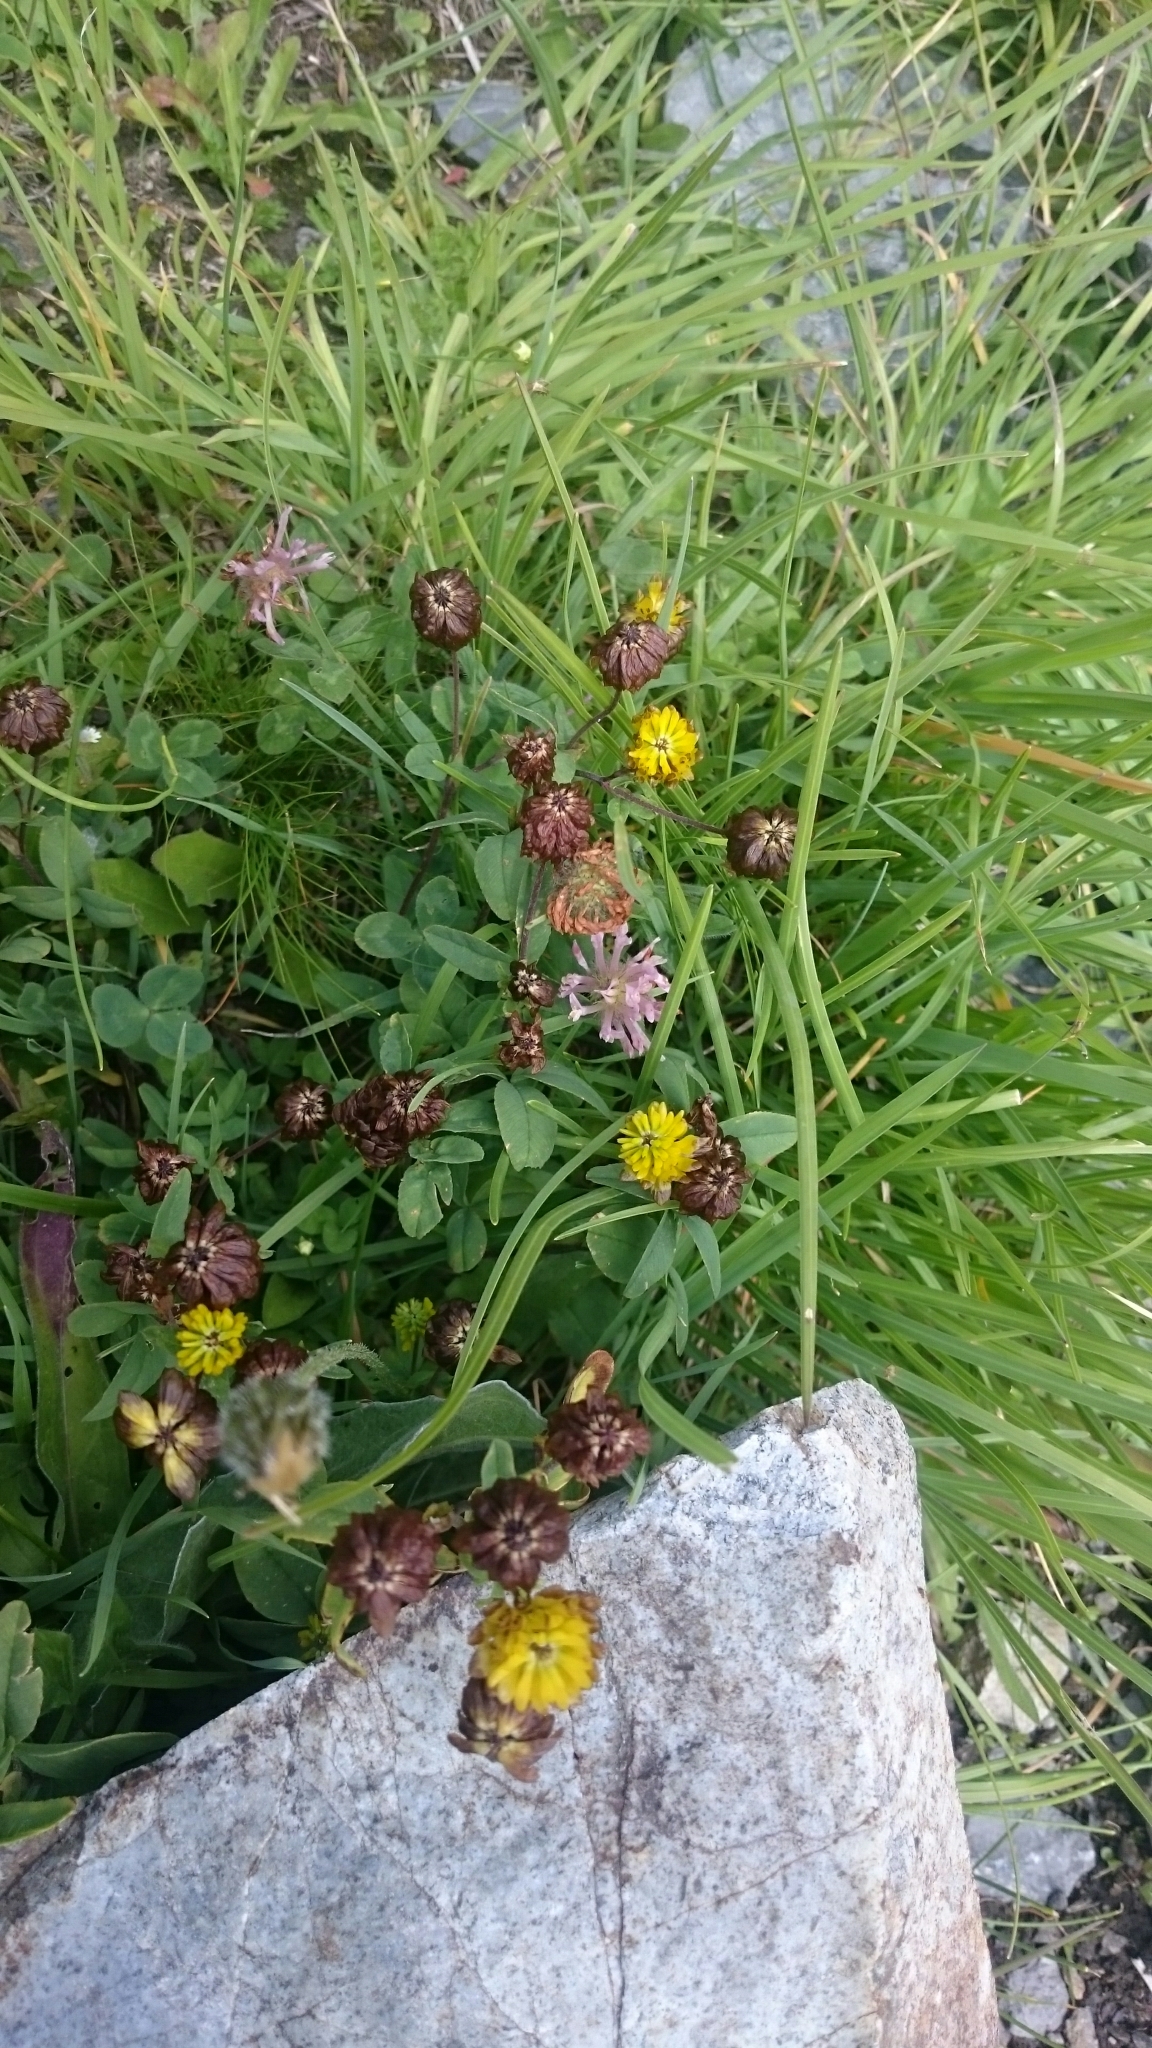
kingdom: Plantae
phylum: Tracheophyta
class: Magnoliopsida
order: Fabales
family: Fabaceae
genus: Trifolium
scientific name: Trifolium badium
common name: Brown clover
